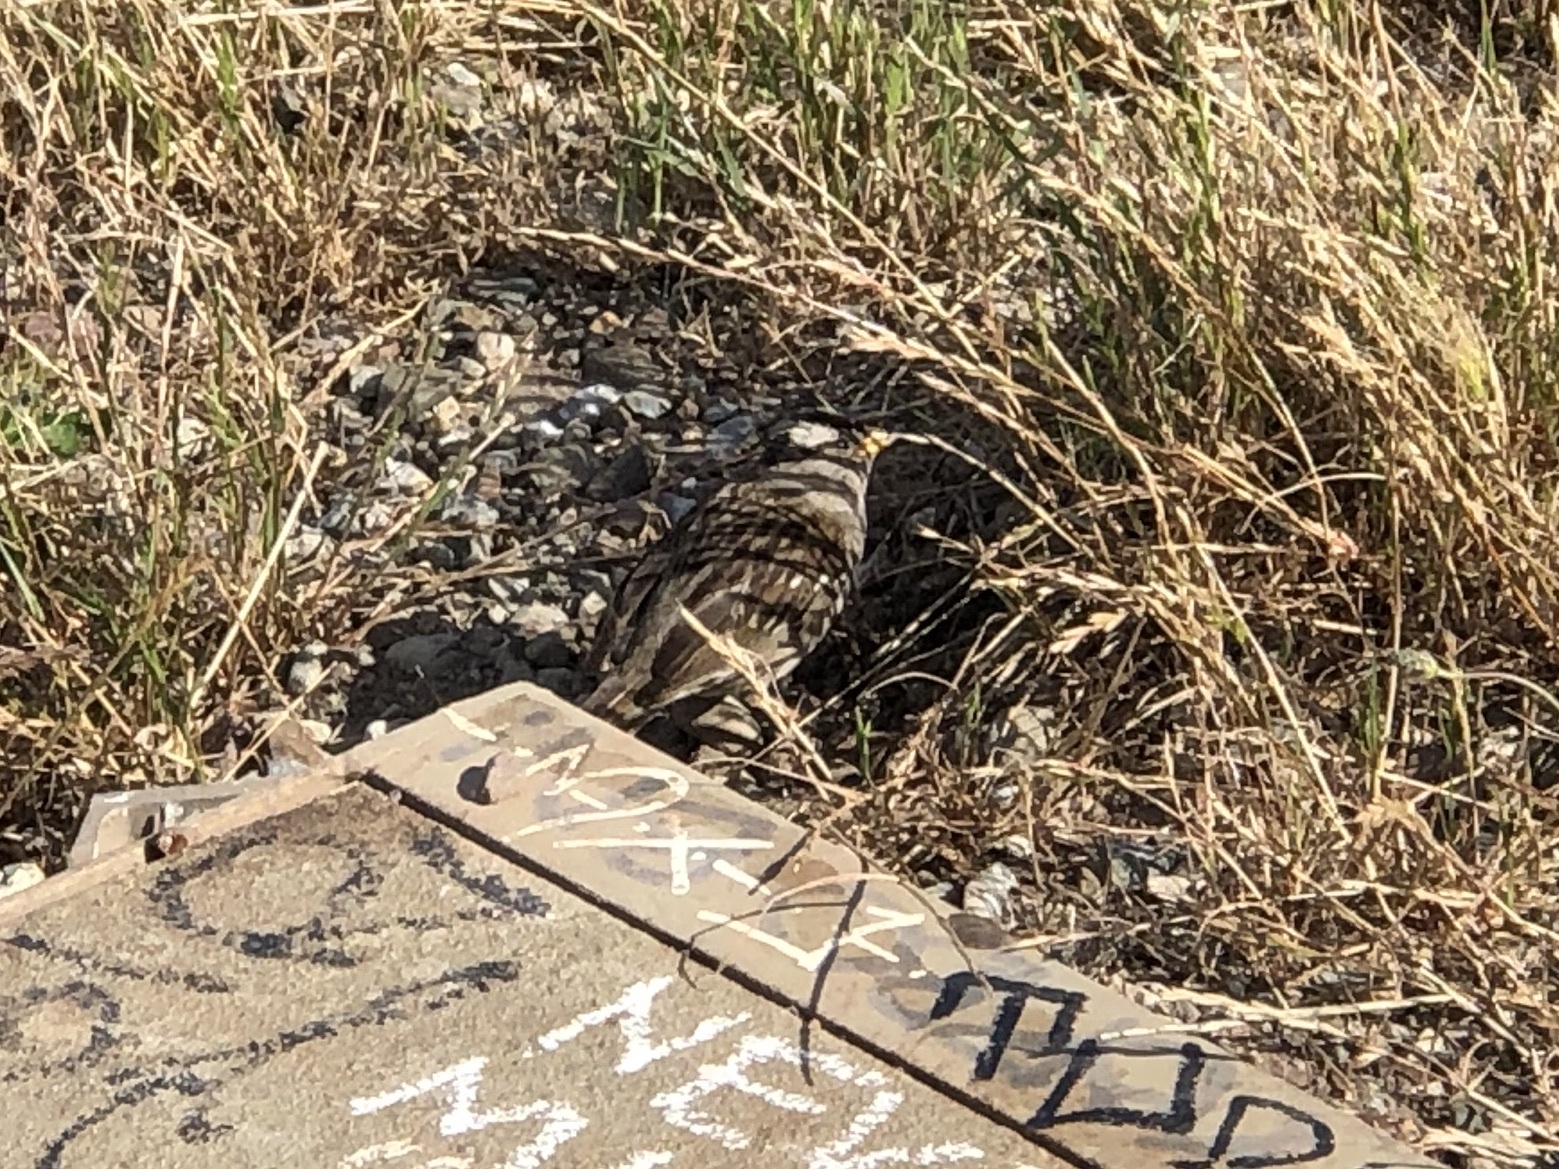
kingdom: Animalia
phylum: Chordata
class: Aves
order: Passeriformes
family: Passerellidae
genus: Zonotrichia
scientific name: Zonotrichia leucophrys
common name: White-crowned sparrow
